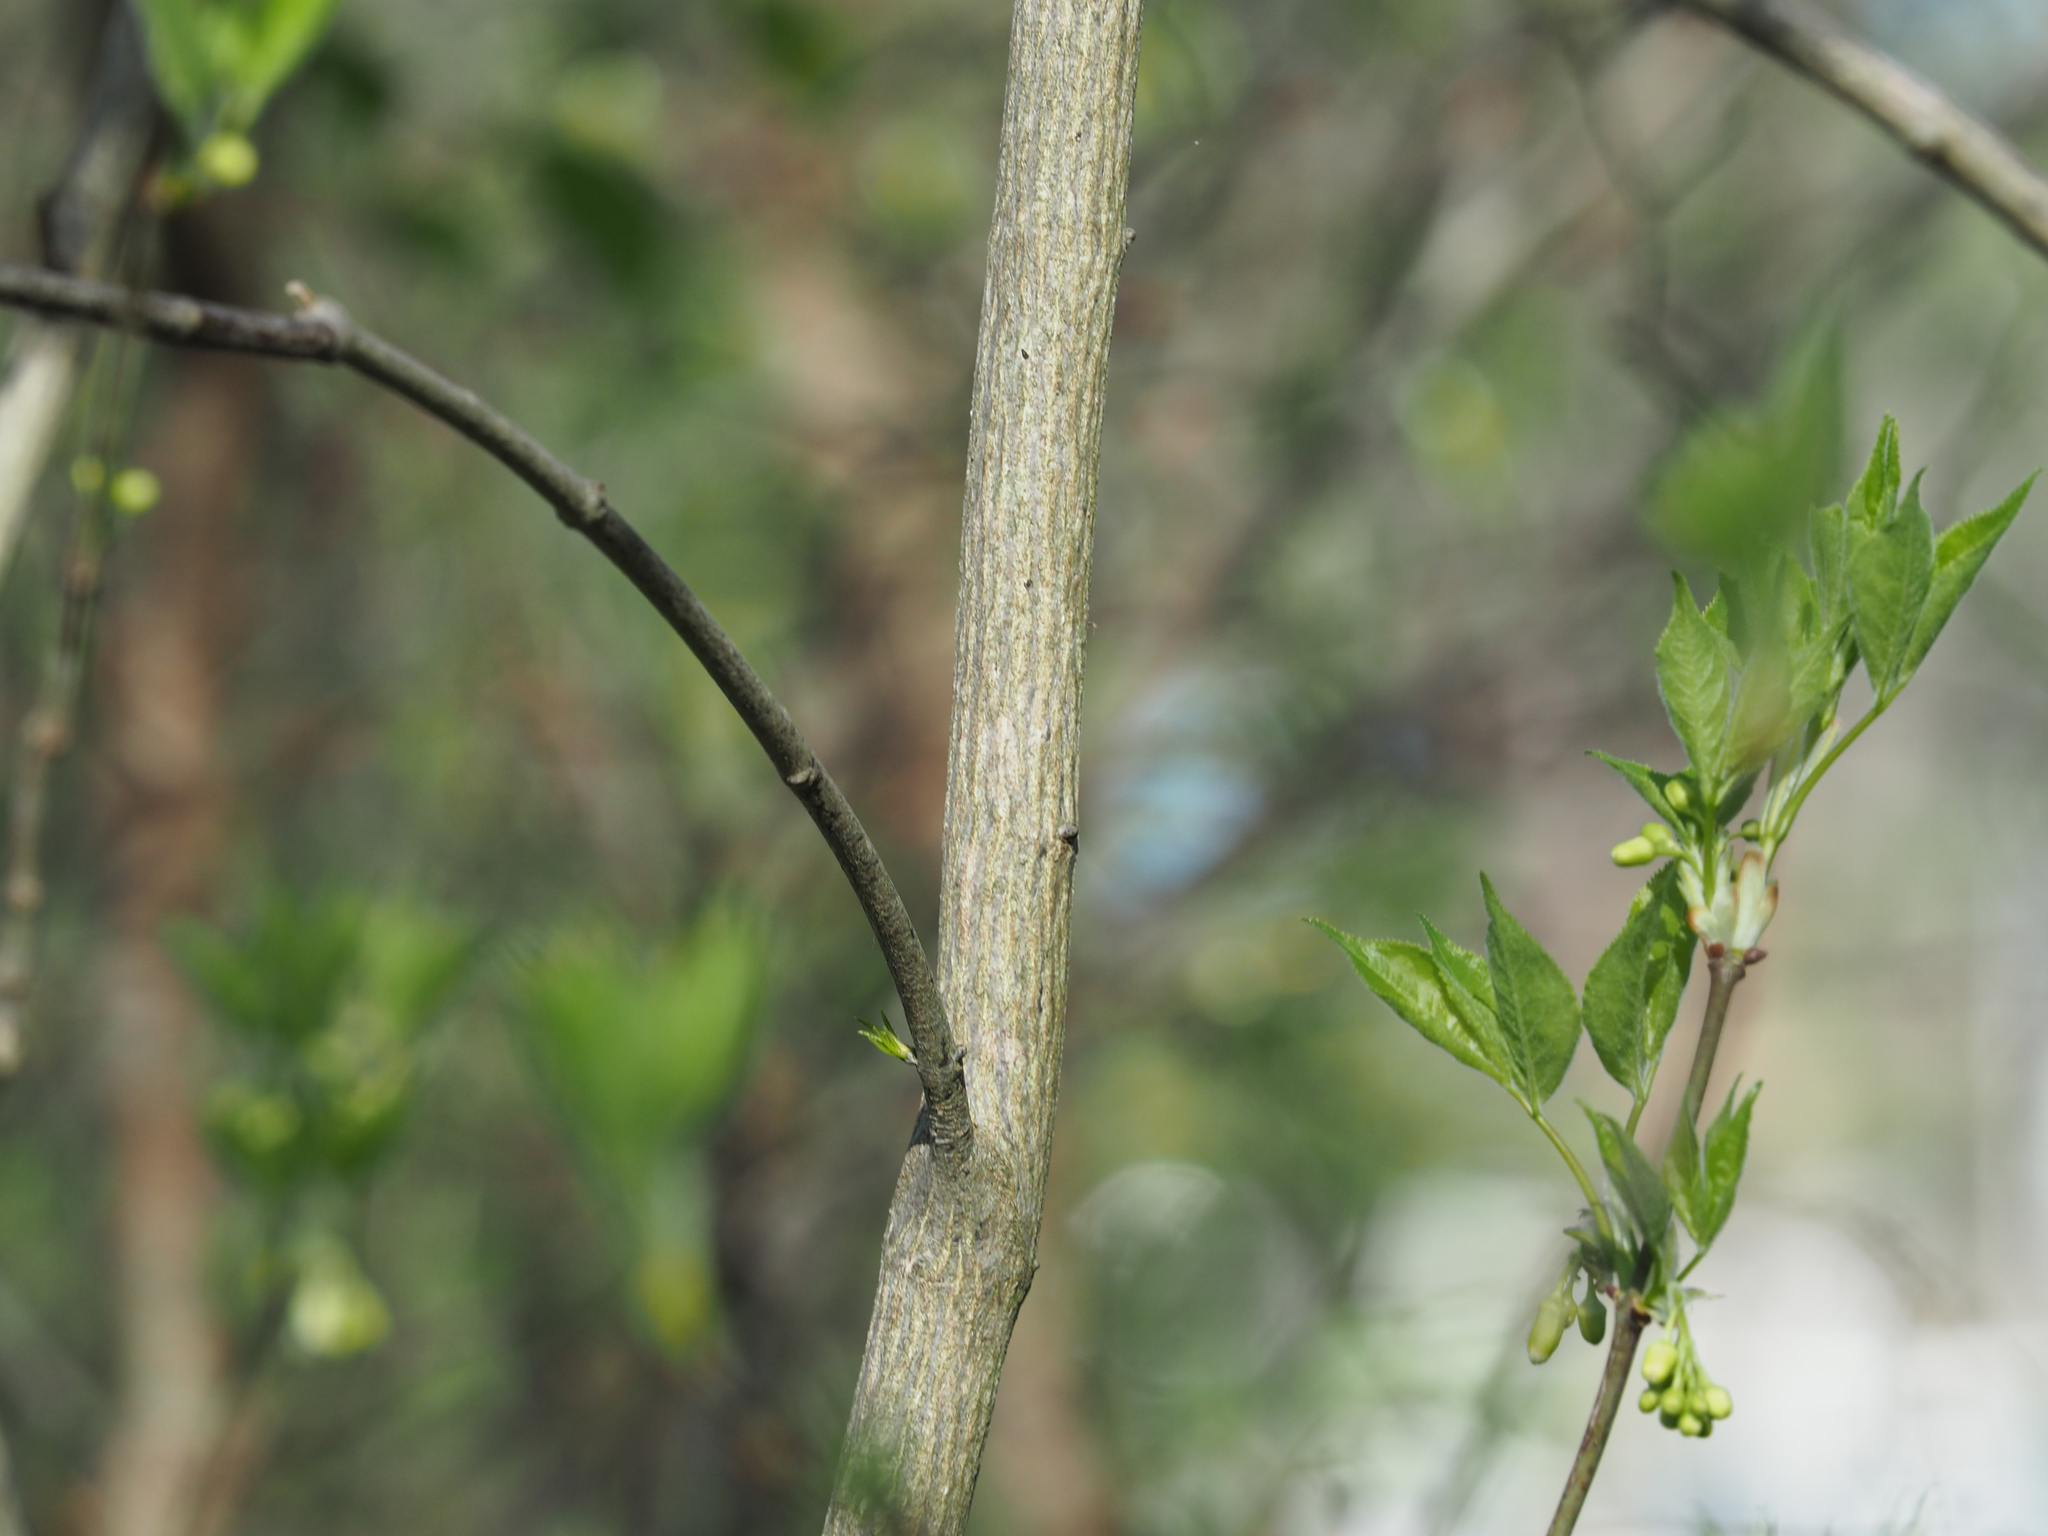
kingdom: Plantae
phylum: Tracheophyta
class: Magnoliopsida
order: Crossosomatales
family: Staphyleaceae
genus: Staphylea
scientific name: Staphylea trifolia
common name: American bladdernut
